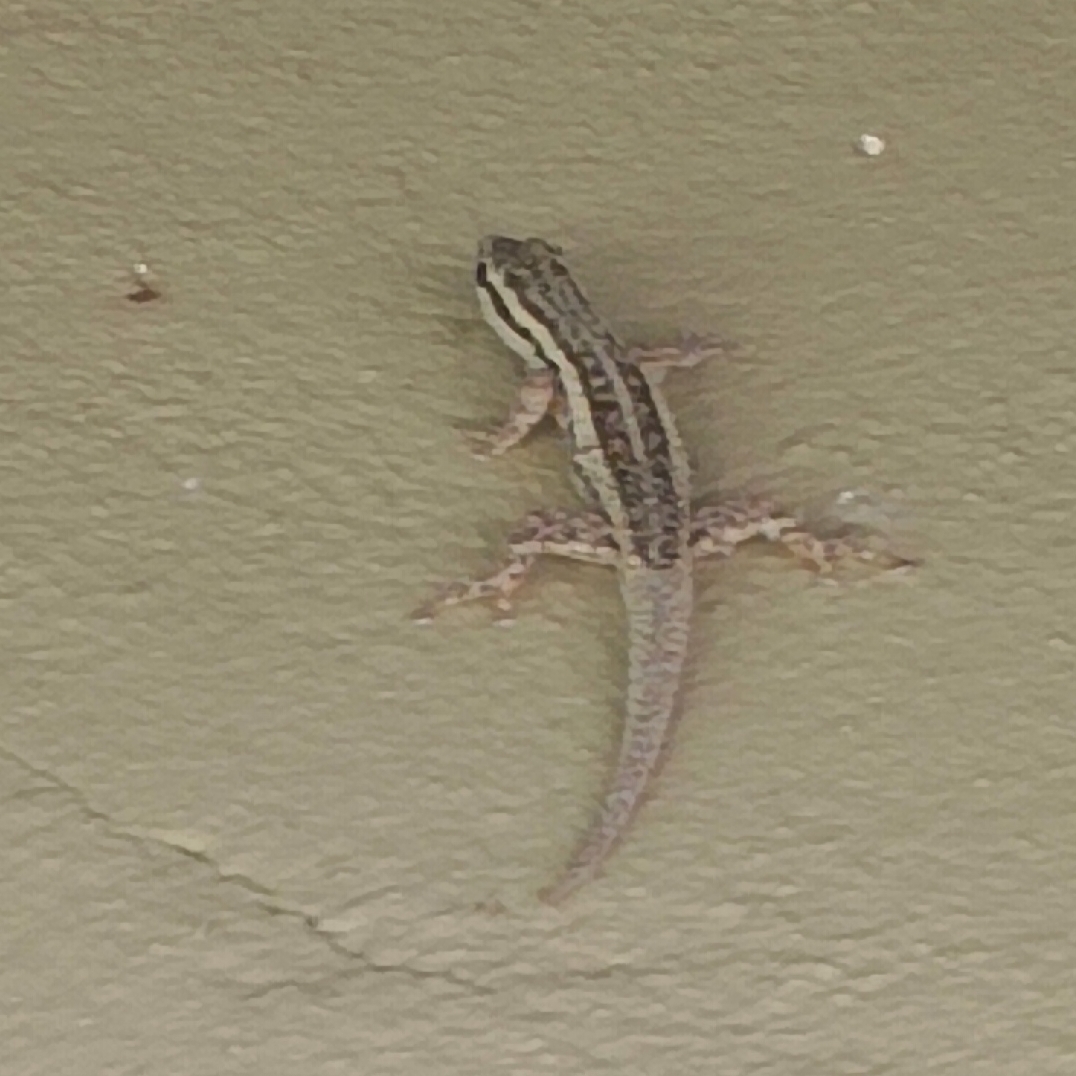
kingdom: Animalia
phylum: Chordata
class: Squamata
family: Gekkonidae
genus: Lygodactylus
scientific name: Lygodactylus capensis
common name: Cape dwarf gecko
